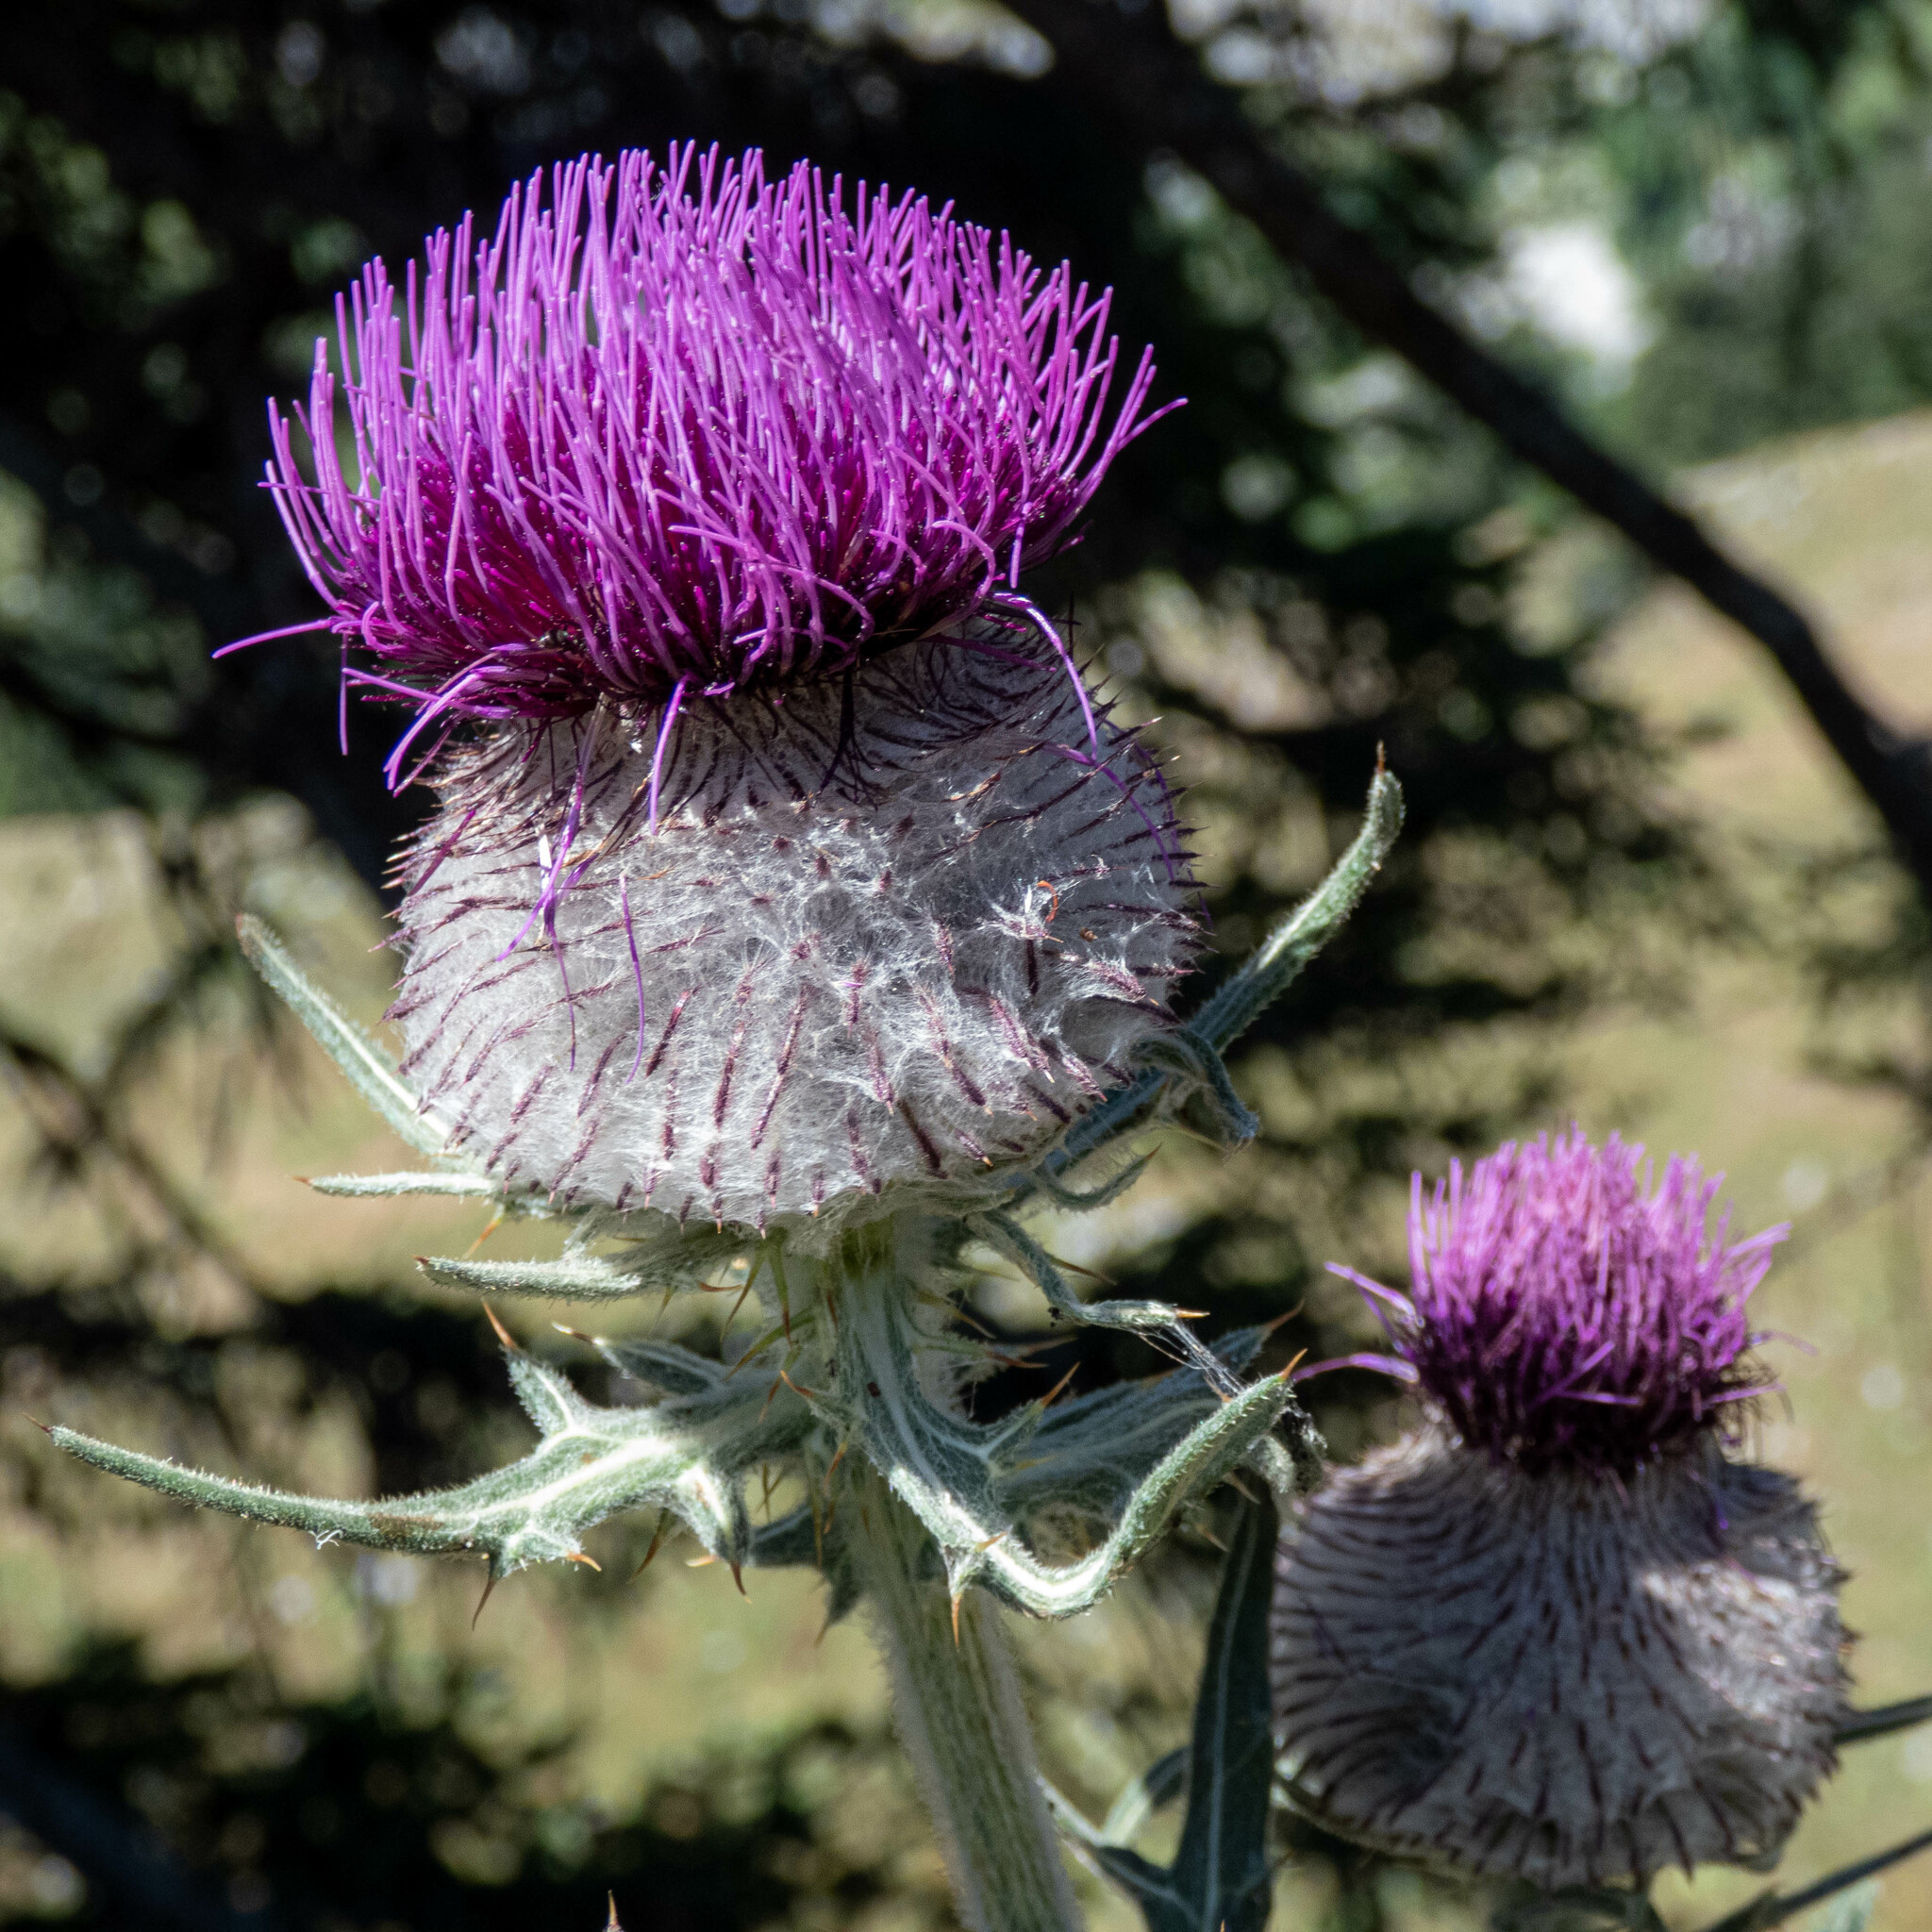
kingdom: Plantae
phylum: Tracheophyta
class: Magnoliopsida
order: Asterales
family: Asteraceae
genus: Lophiolepis
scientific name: Lophiolepis eriophora
